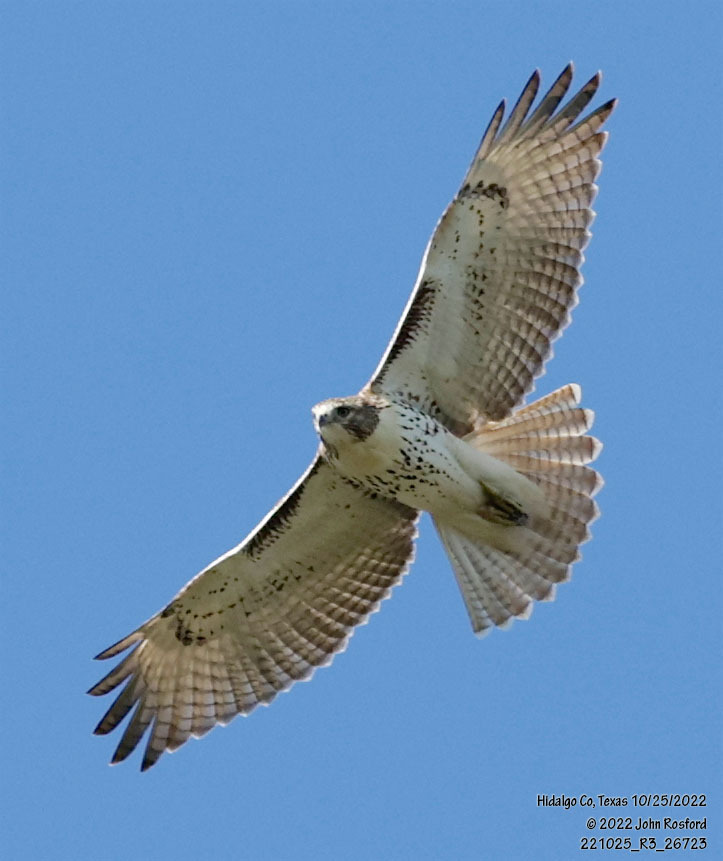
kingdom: Animalia
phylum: Chordata
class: Aves
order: Accipitriformes
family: Accipitridae
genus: Buteo
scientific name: Buteo jamaicensis
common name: Red-tailed hawk
